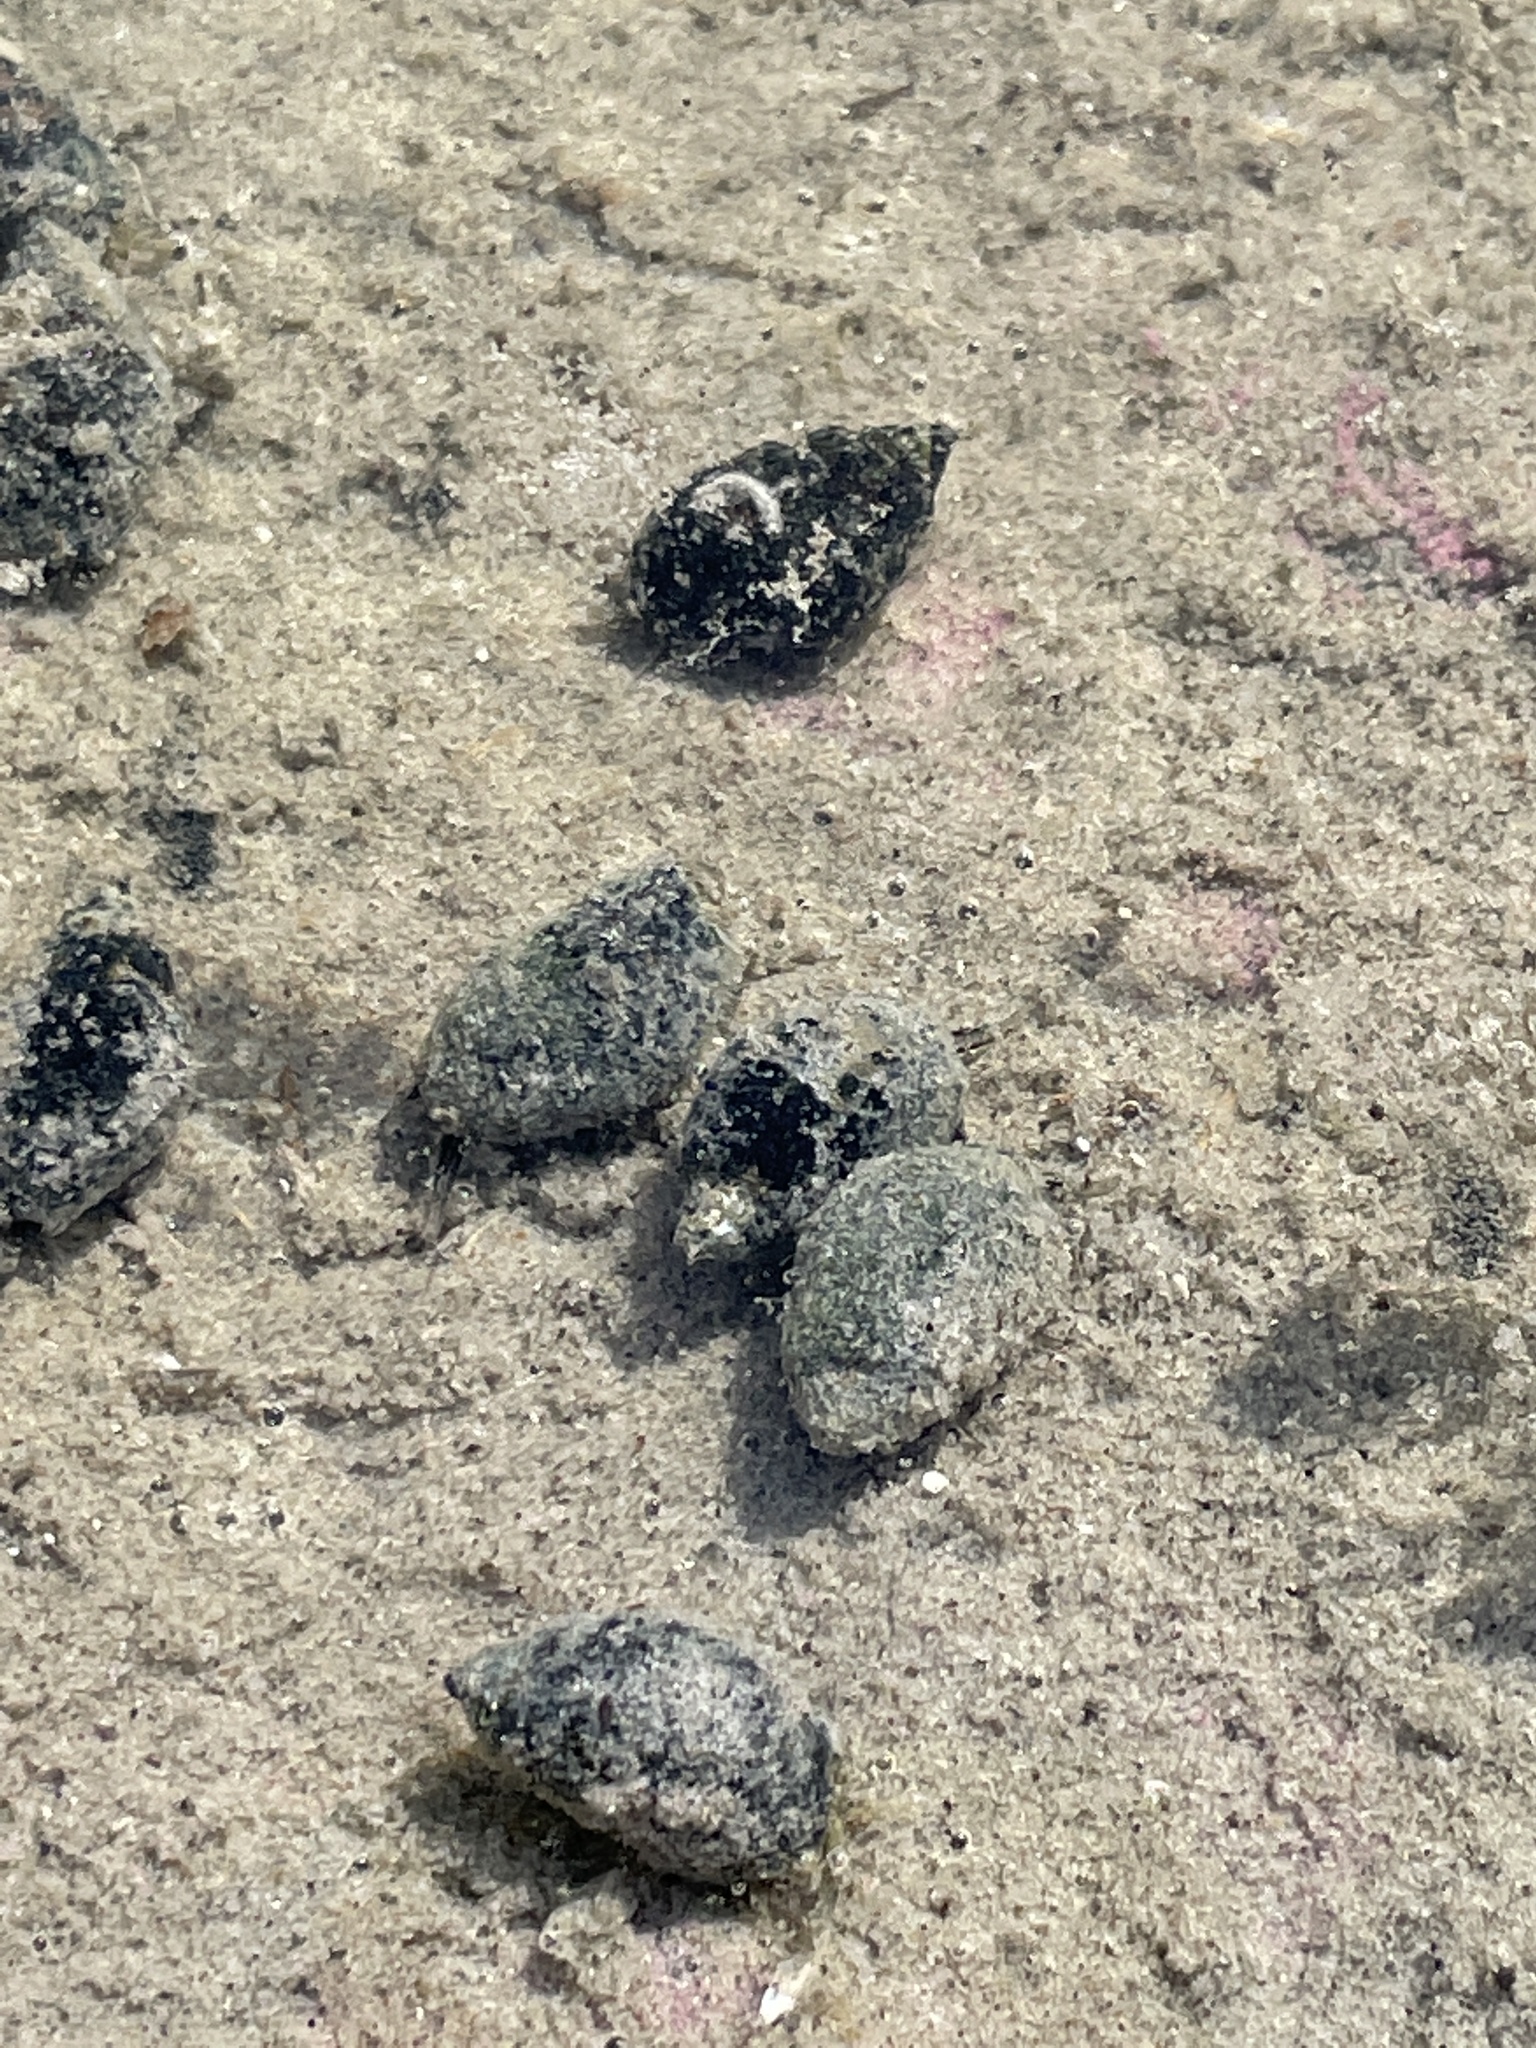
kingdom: Animalia
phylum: Mollusca
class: Gastropoda
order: Neogastropoda
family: Nassariidae
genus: Ilyanassa
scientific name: Ilyanassa obsoleta
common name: Eastern mudsnail
